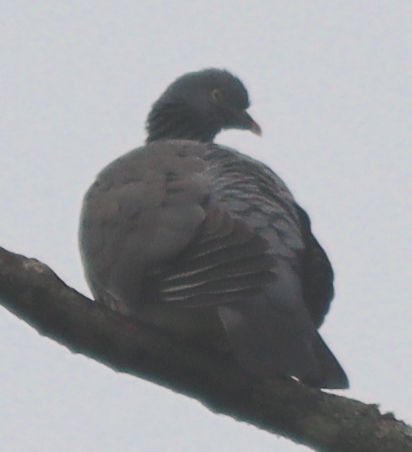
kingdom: Animalia
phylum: Chordata
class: Aves
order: Columbiformes
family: Columbidae
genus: Columba
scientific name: Columba palumbus
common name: Common wood pigeon
